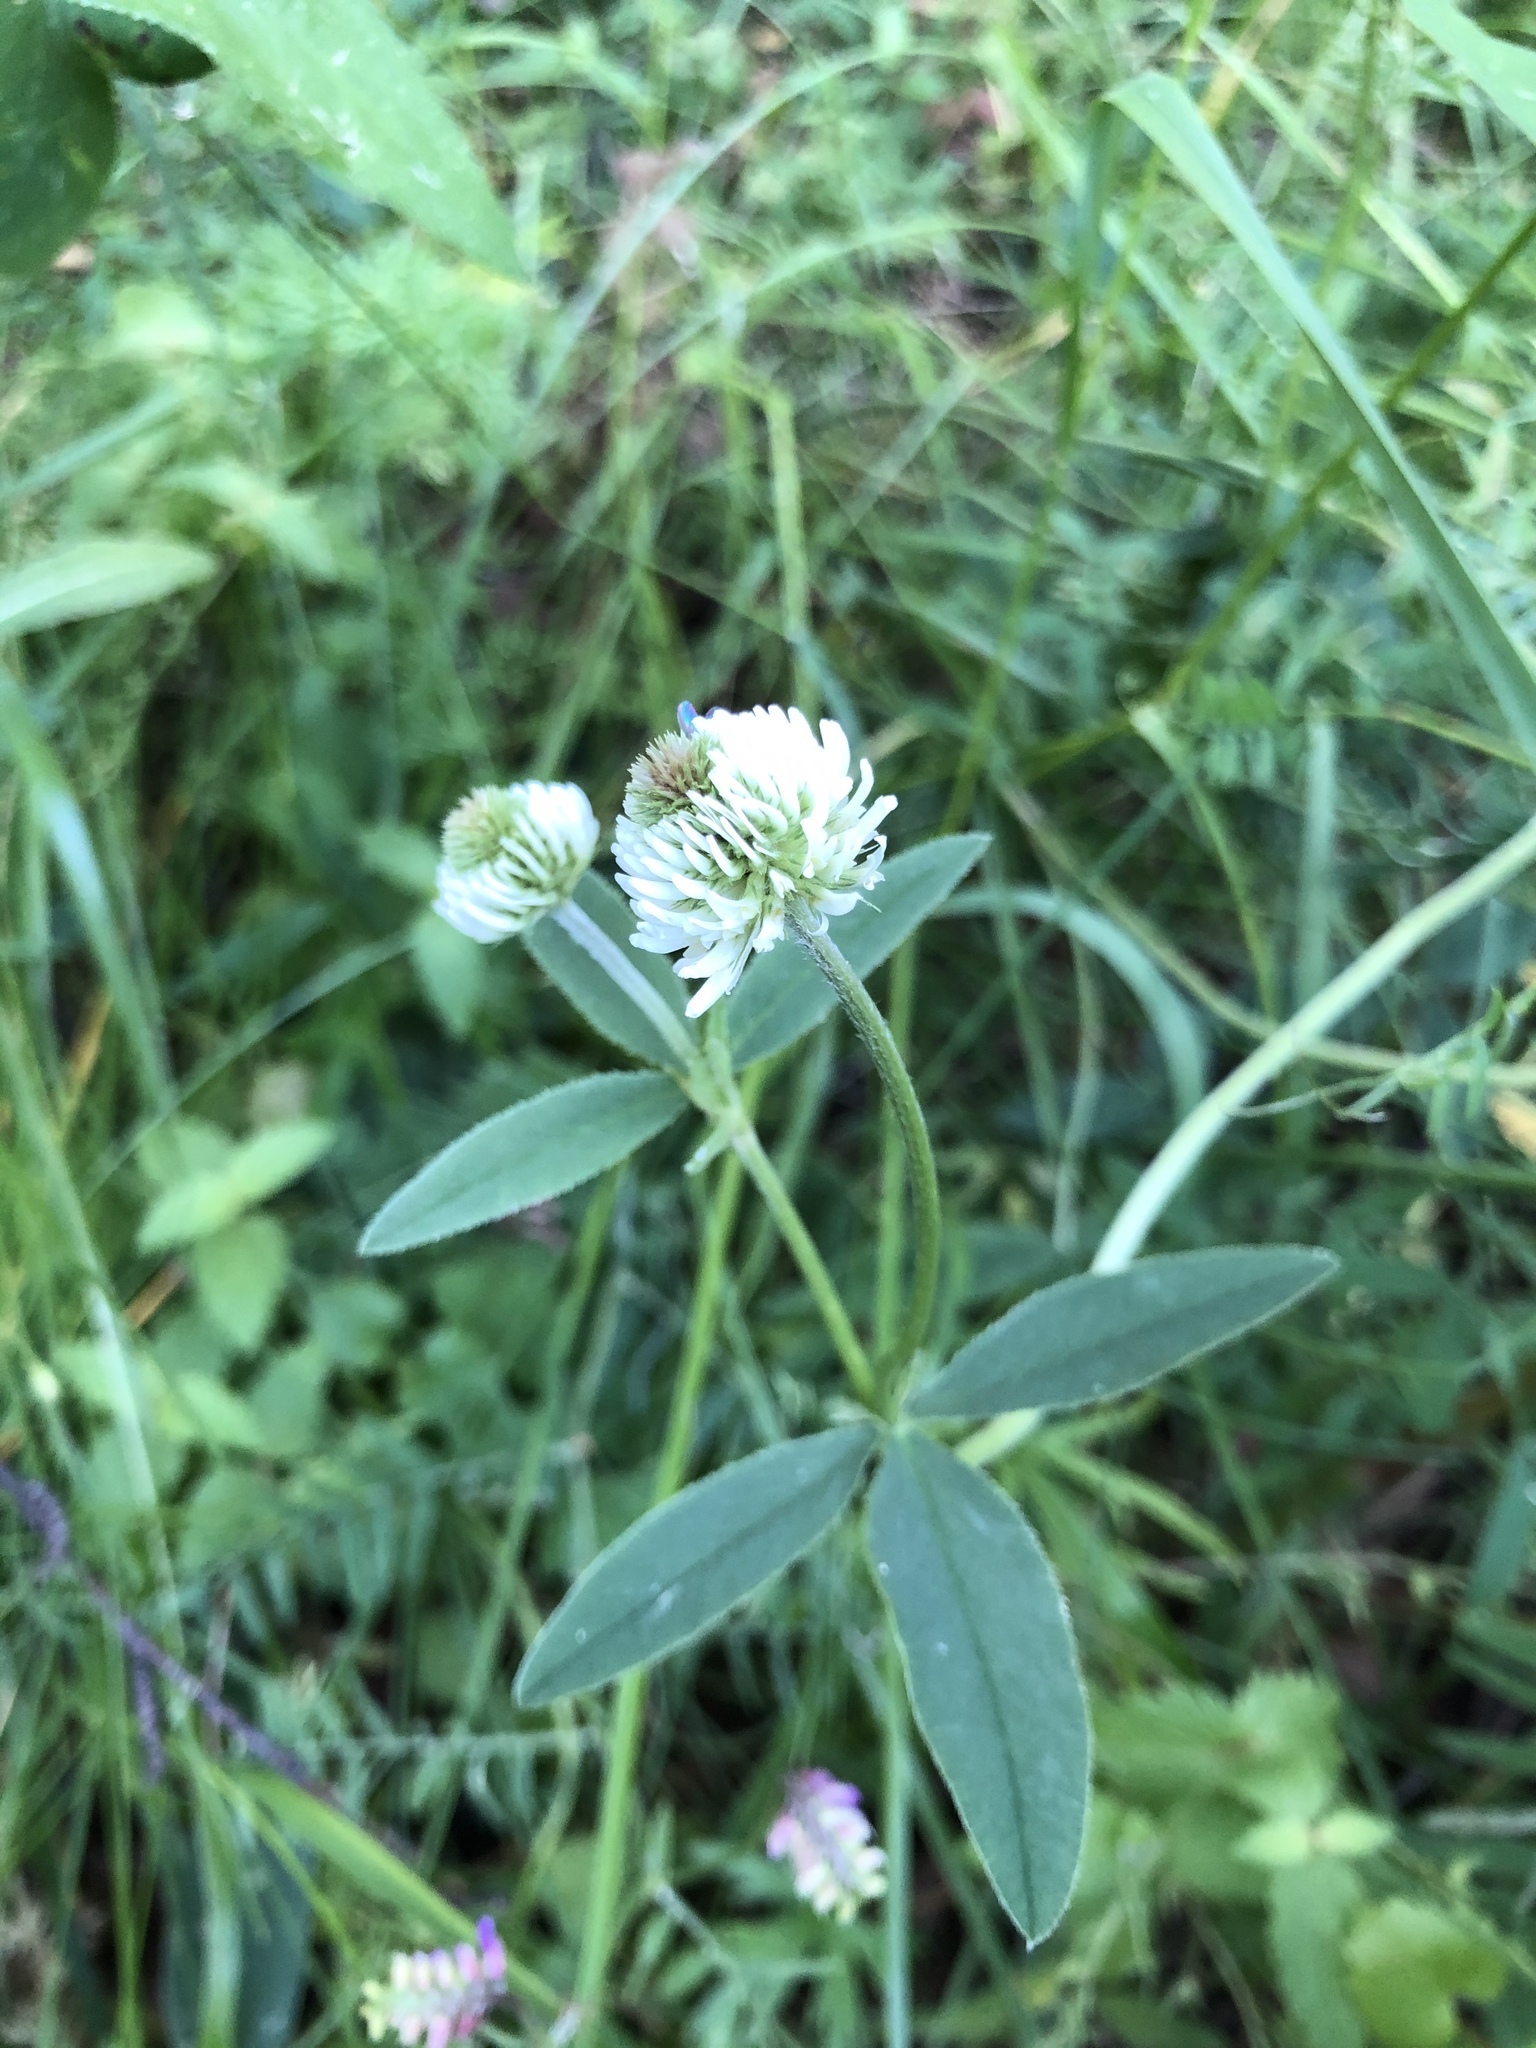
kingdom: Plantae
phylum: Tracheophyta
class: Magnoliopsida
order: Fabales
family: Fabaceae
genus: Trifolium
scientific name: Trifolium montanum
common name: Mountain clover
